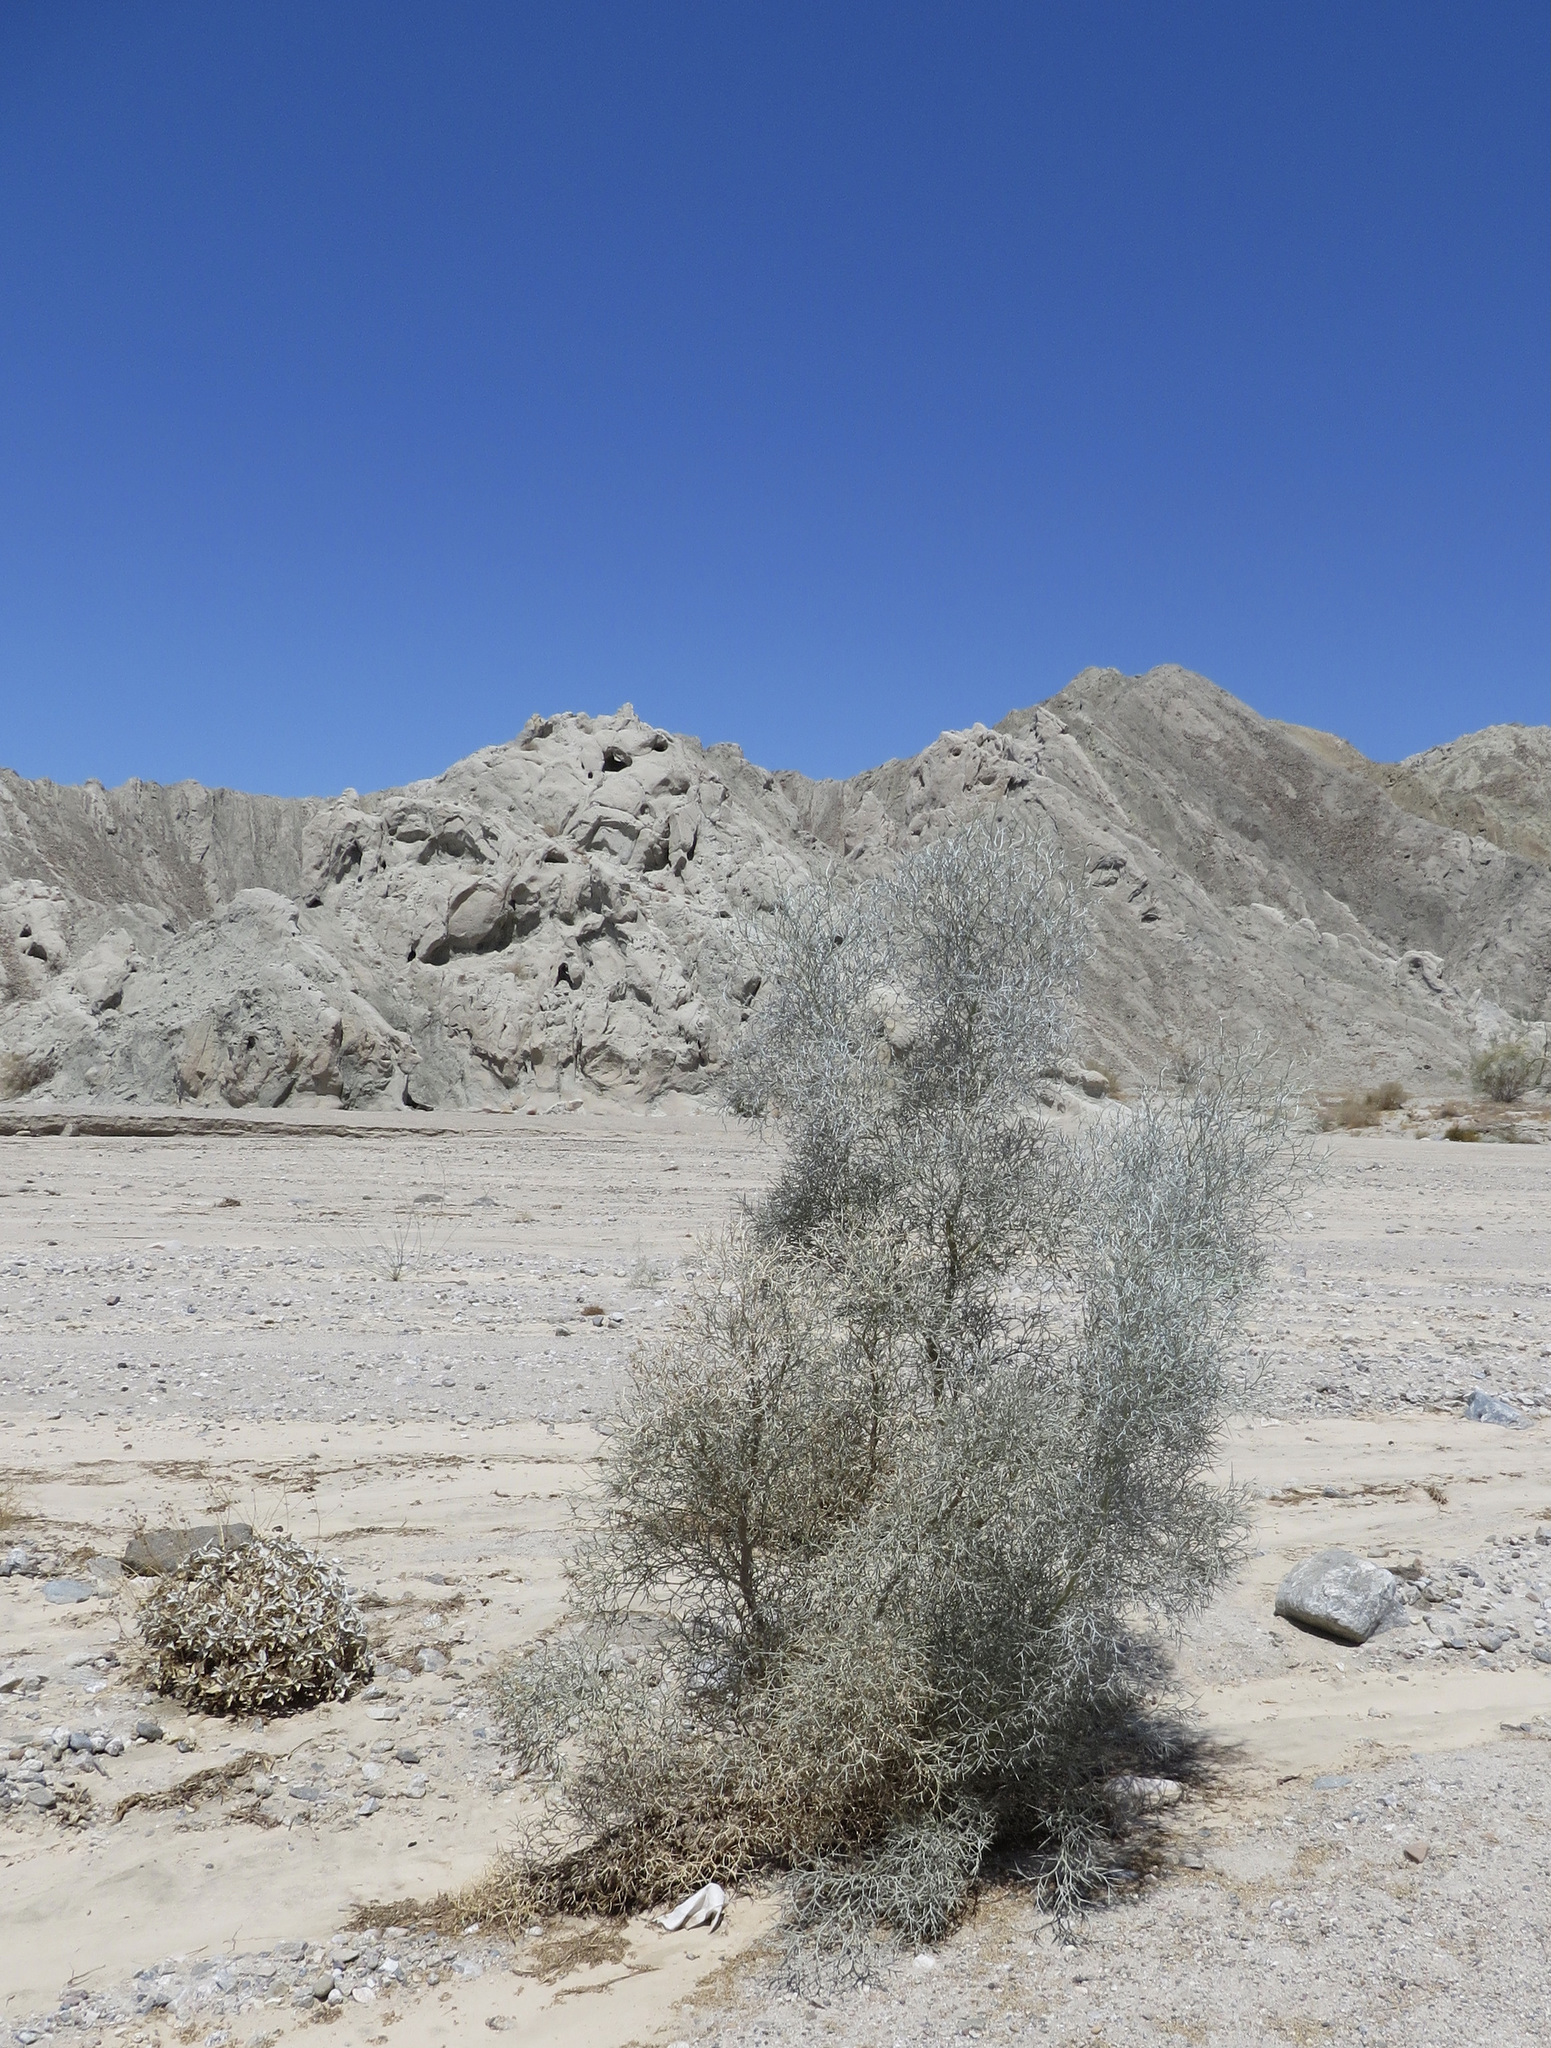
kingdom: Plantae
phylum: Tracheophyta
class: Magnoliopsida
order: Fabales
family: Fabaceae
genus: Psorothamnus
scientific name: Psorothamnus spinosus
